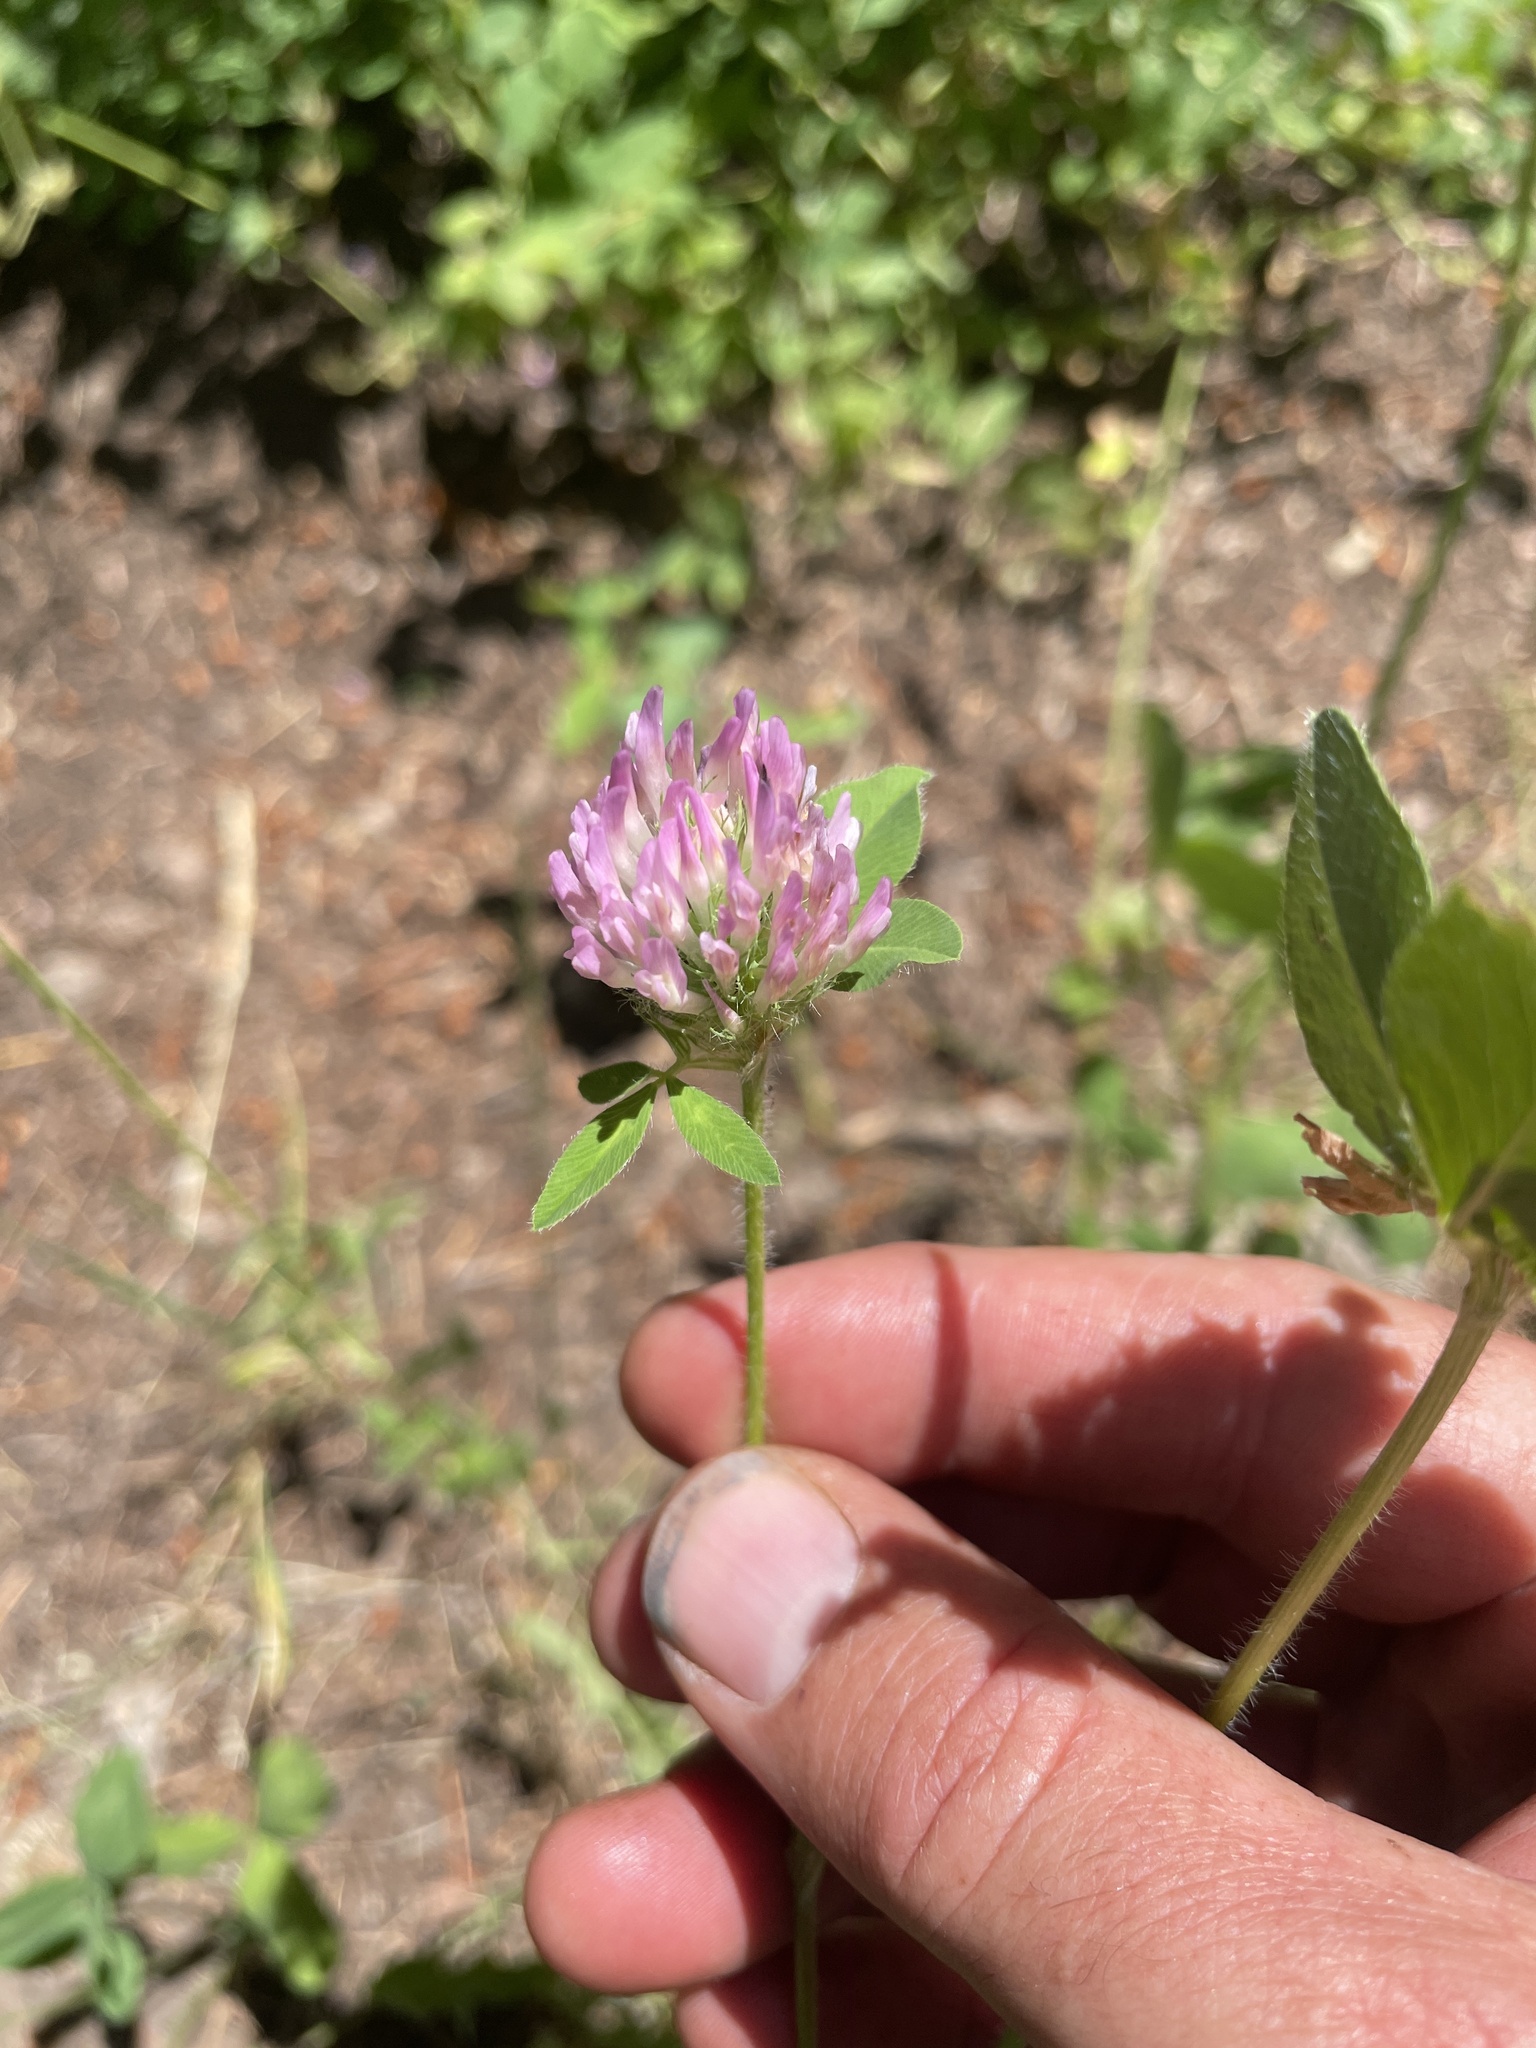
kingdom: Plantae
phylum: Tracheophyta
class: Magnoliopsida
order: Fabales
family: Fabaceae
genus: Trifolium
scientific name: Trifolium pratense
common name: Red clover
